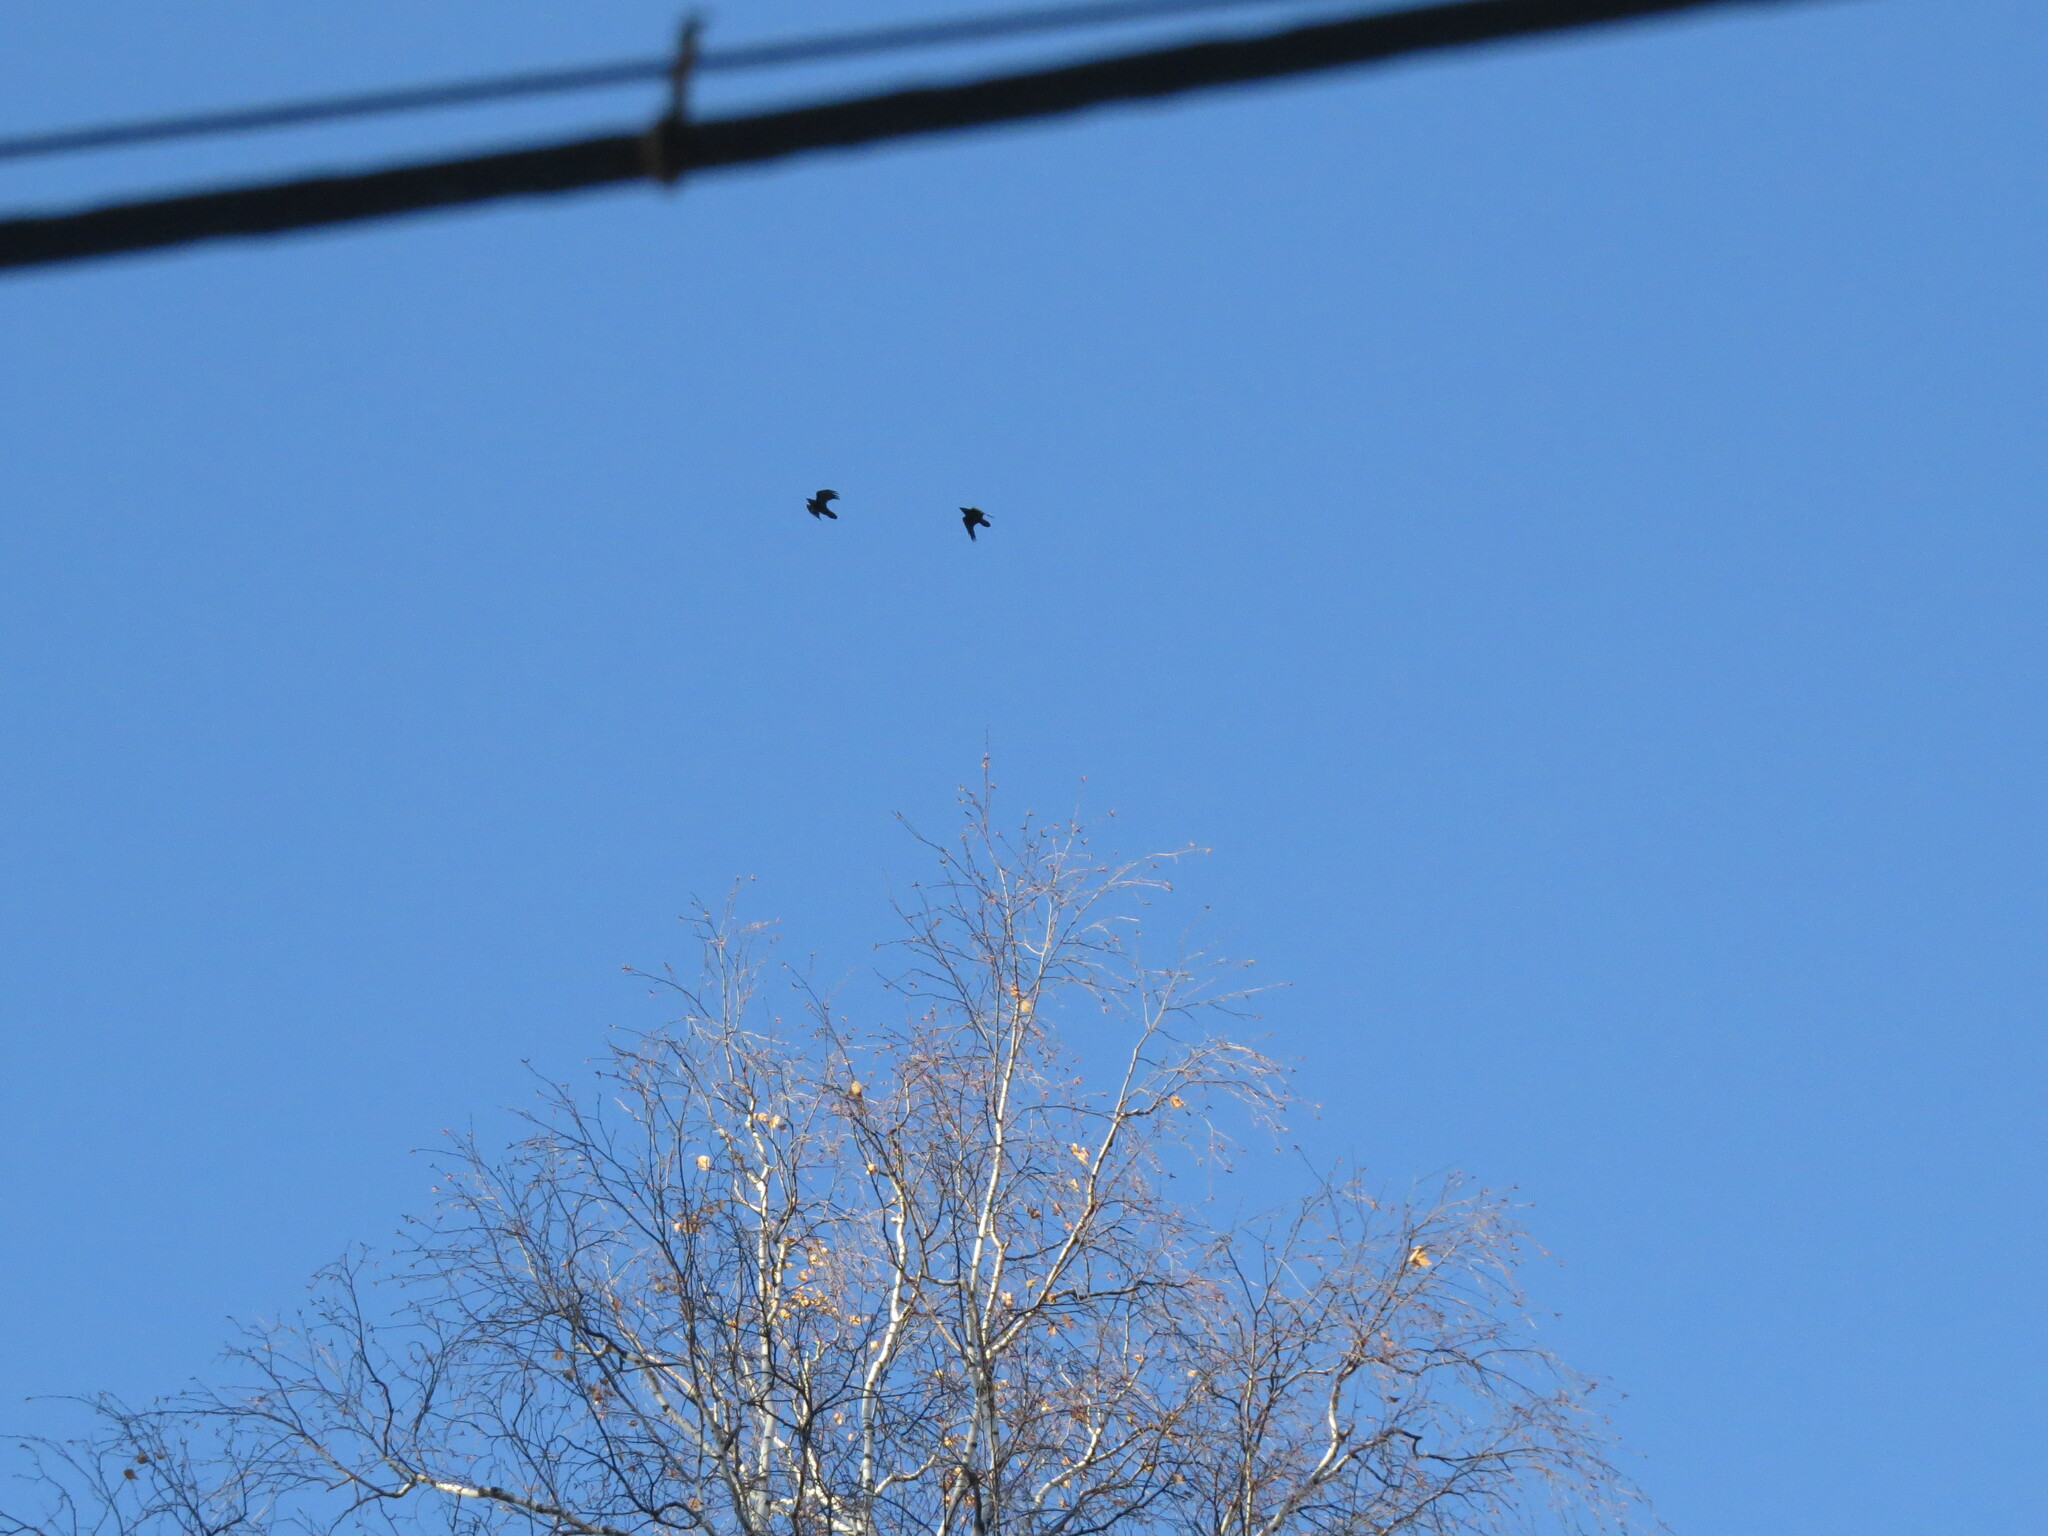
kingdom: Animalia
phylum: Chordata
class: Aves
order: Passeriformes
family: Corvidae
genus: Corvus
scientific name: Corvus corax
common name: Common raven
